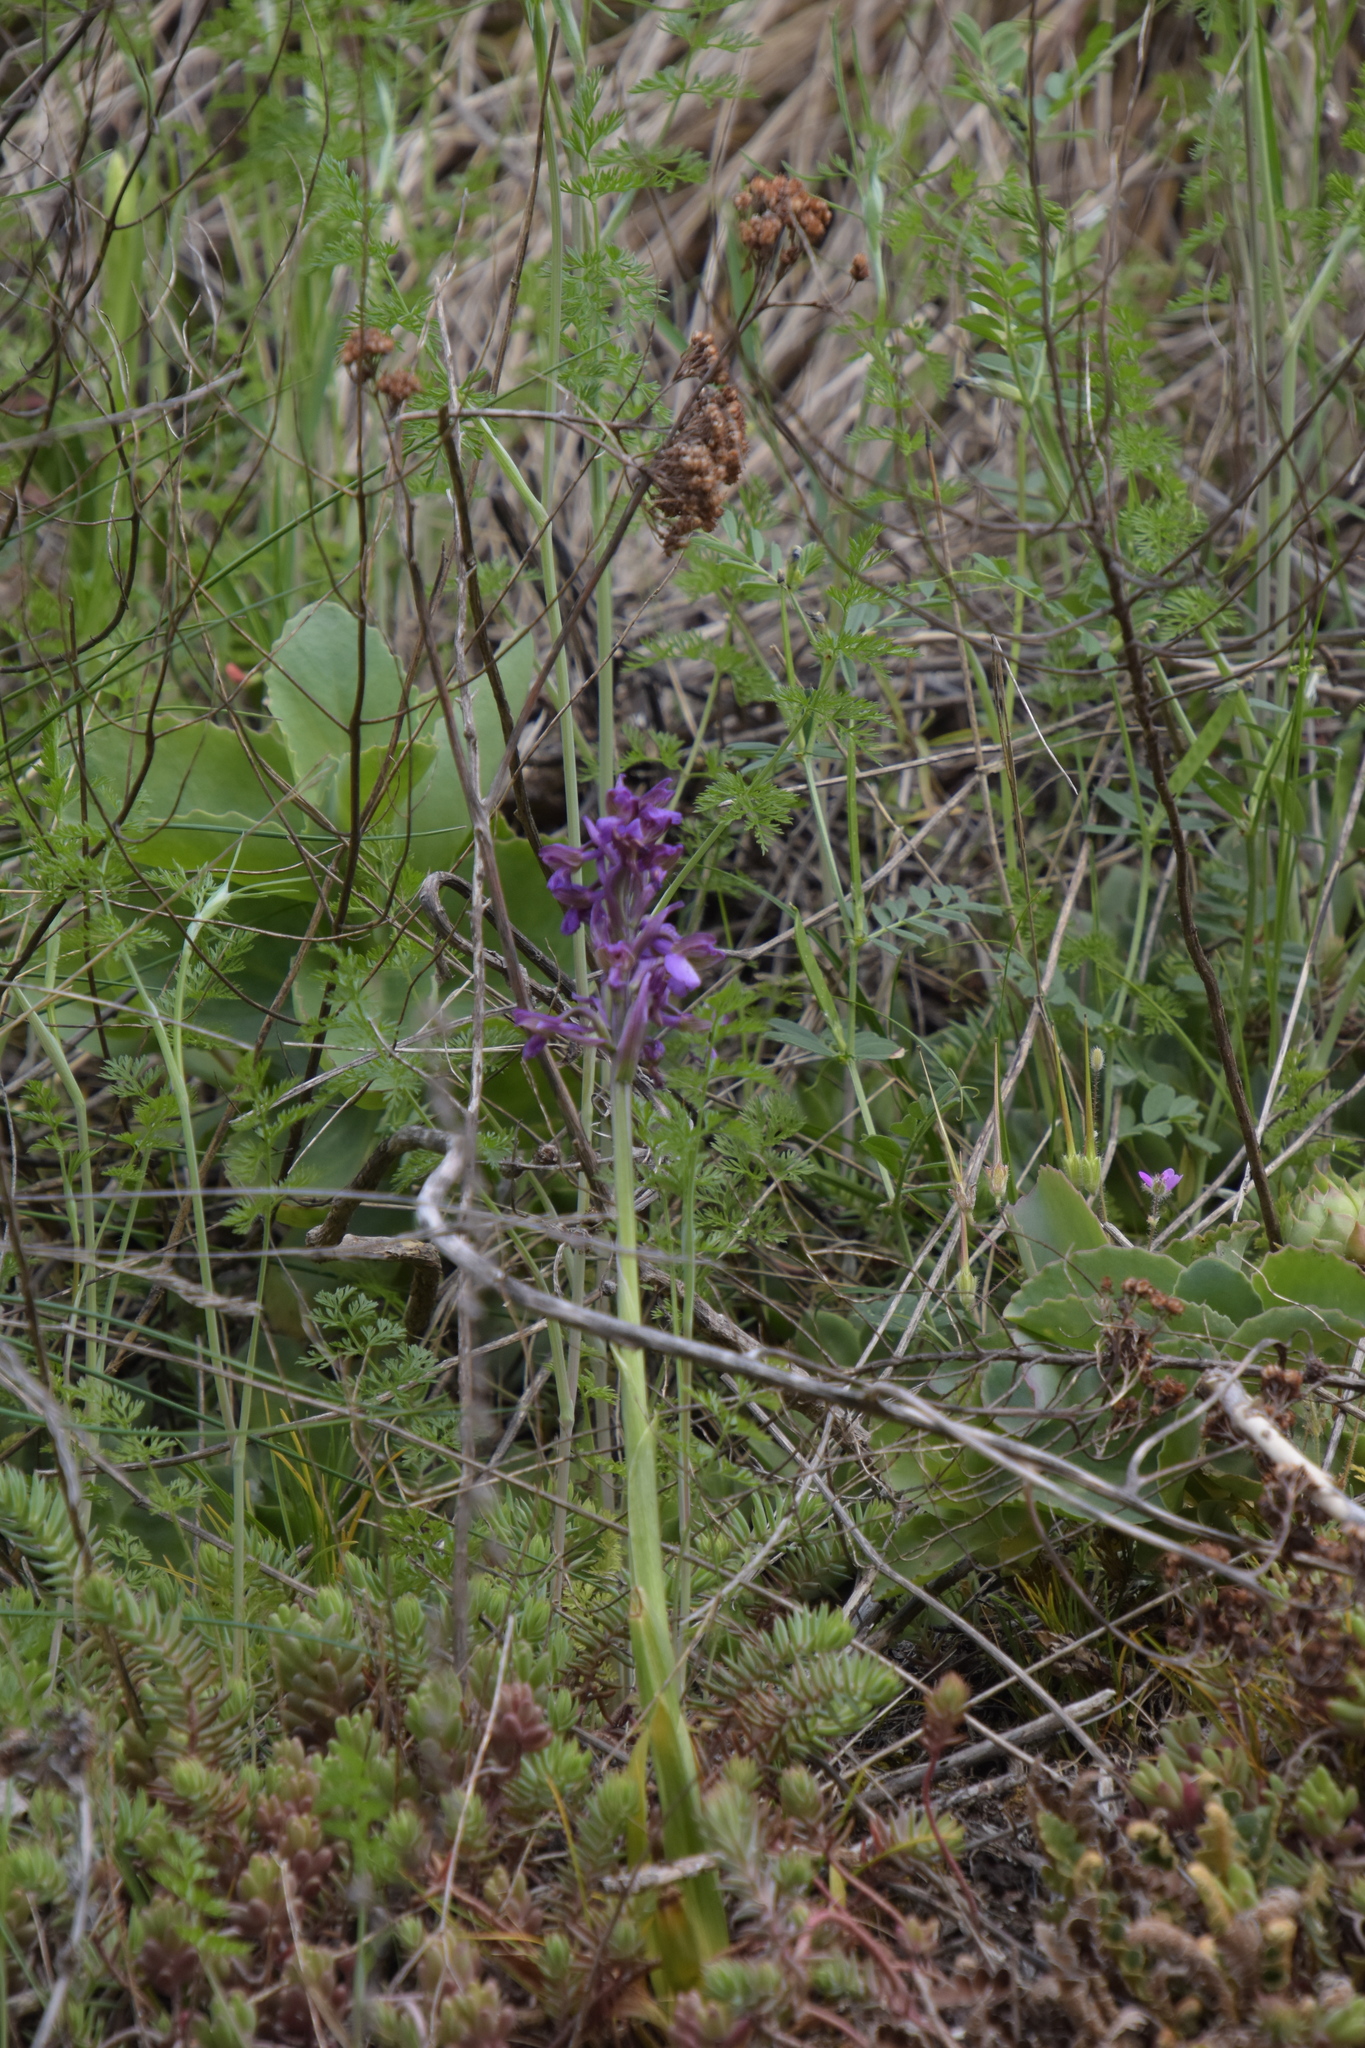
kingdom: Plantae
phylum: Tracheophyta
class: Liliopsida
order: Asparagales
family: Orchidaceae
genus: Anacamptis
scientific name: Anacamptis morio
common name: Green-winged orchid
